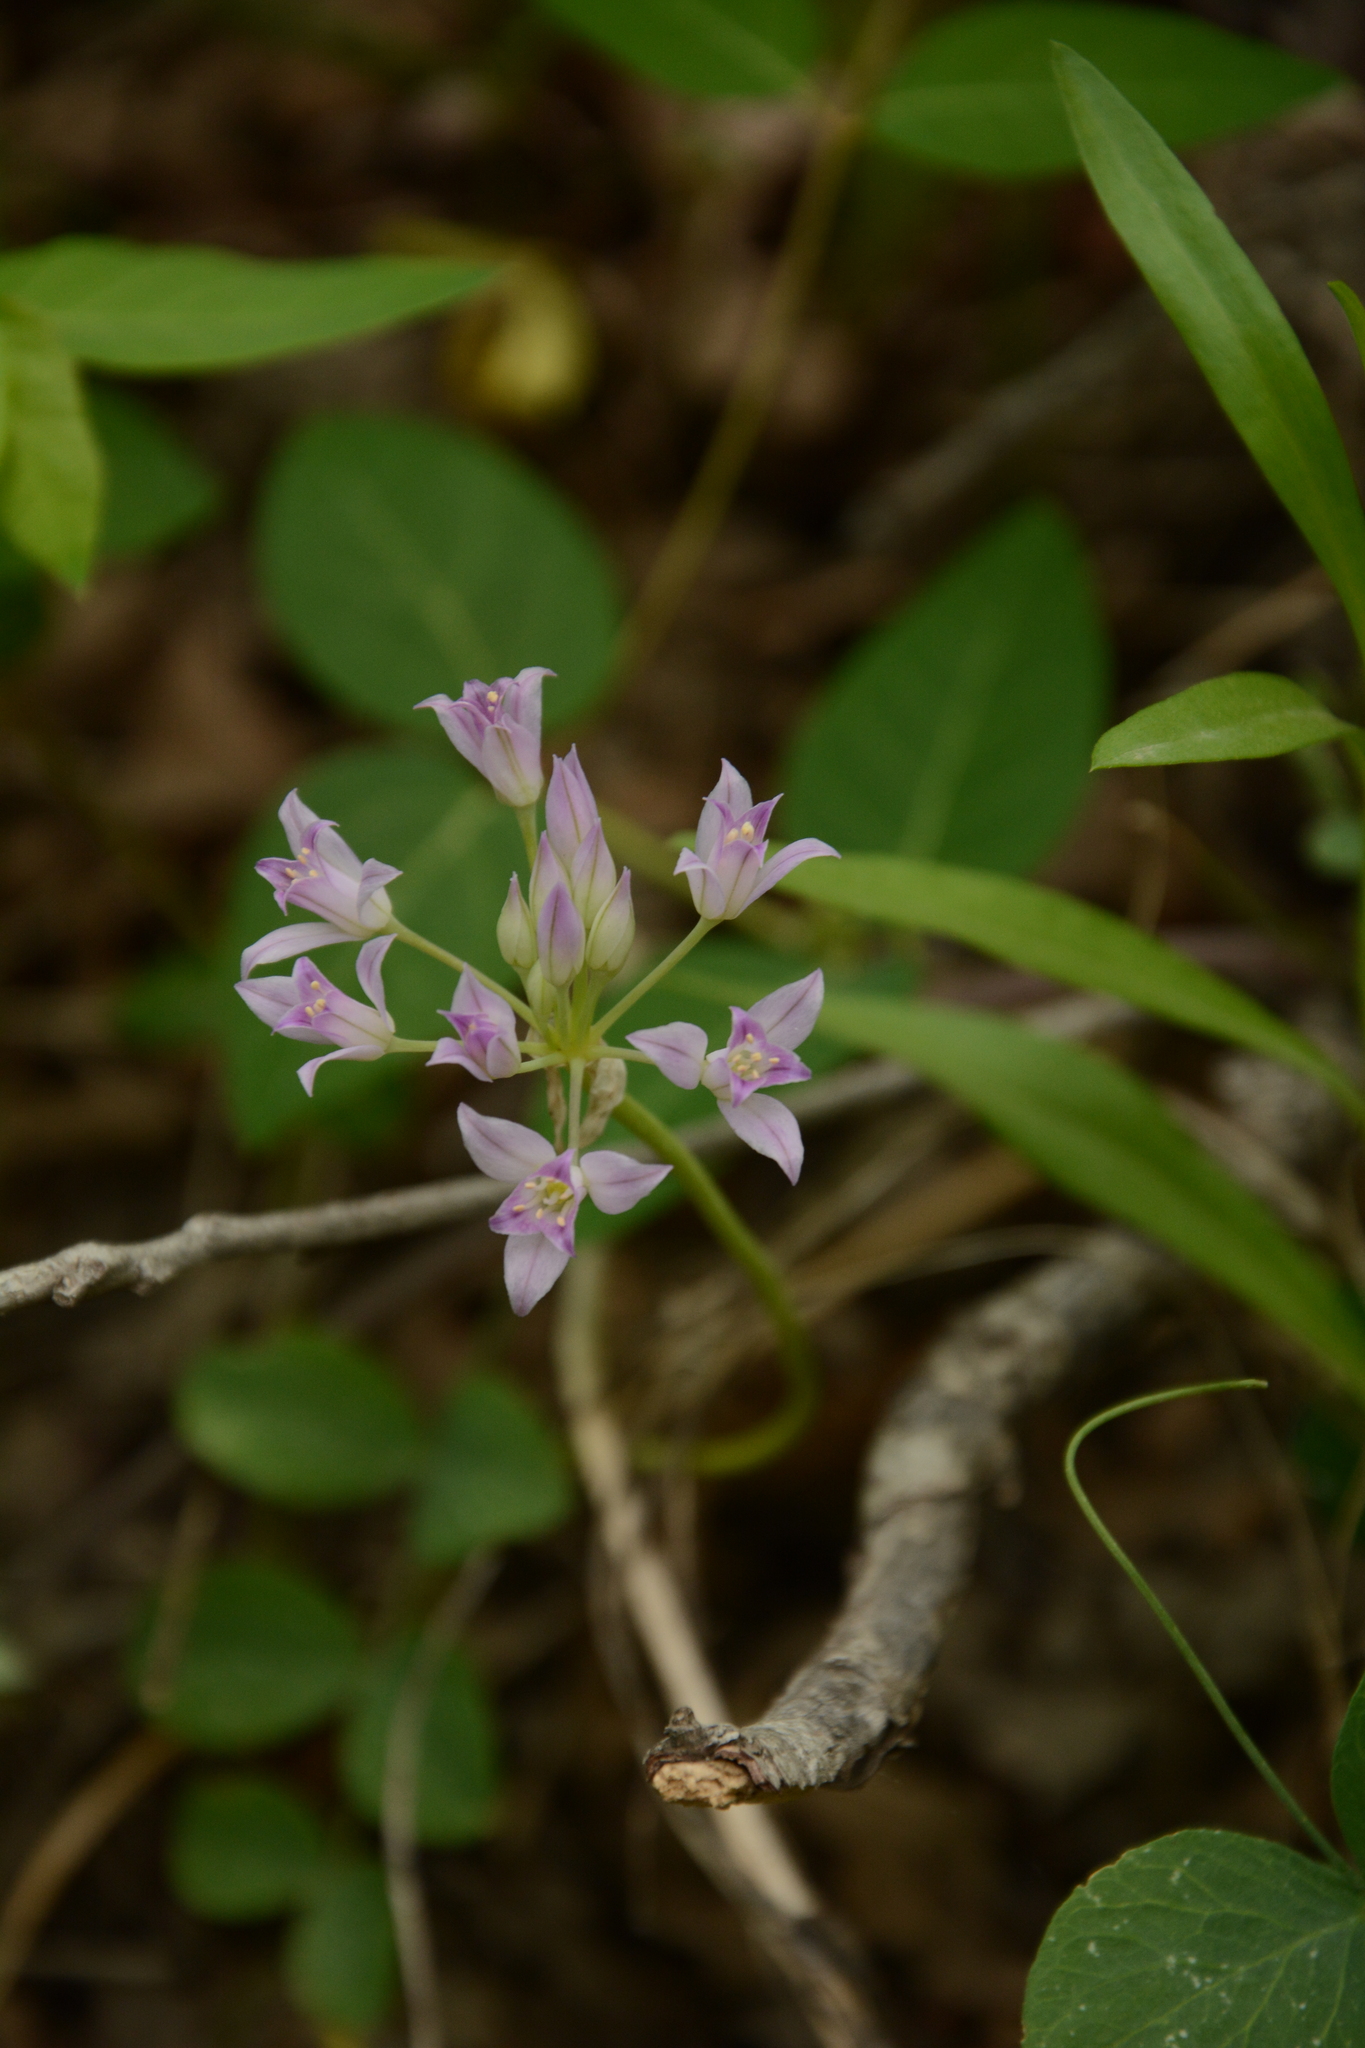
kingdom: Plantae
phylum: Tracheophyta
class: Liliopsida
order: Asparagales
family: Amaryllidaceae
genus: Allium
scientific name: Allium acuminatum
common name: Hooker's onion
